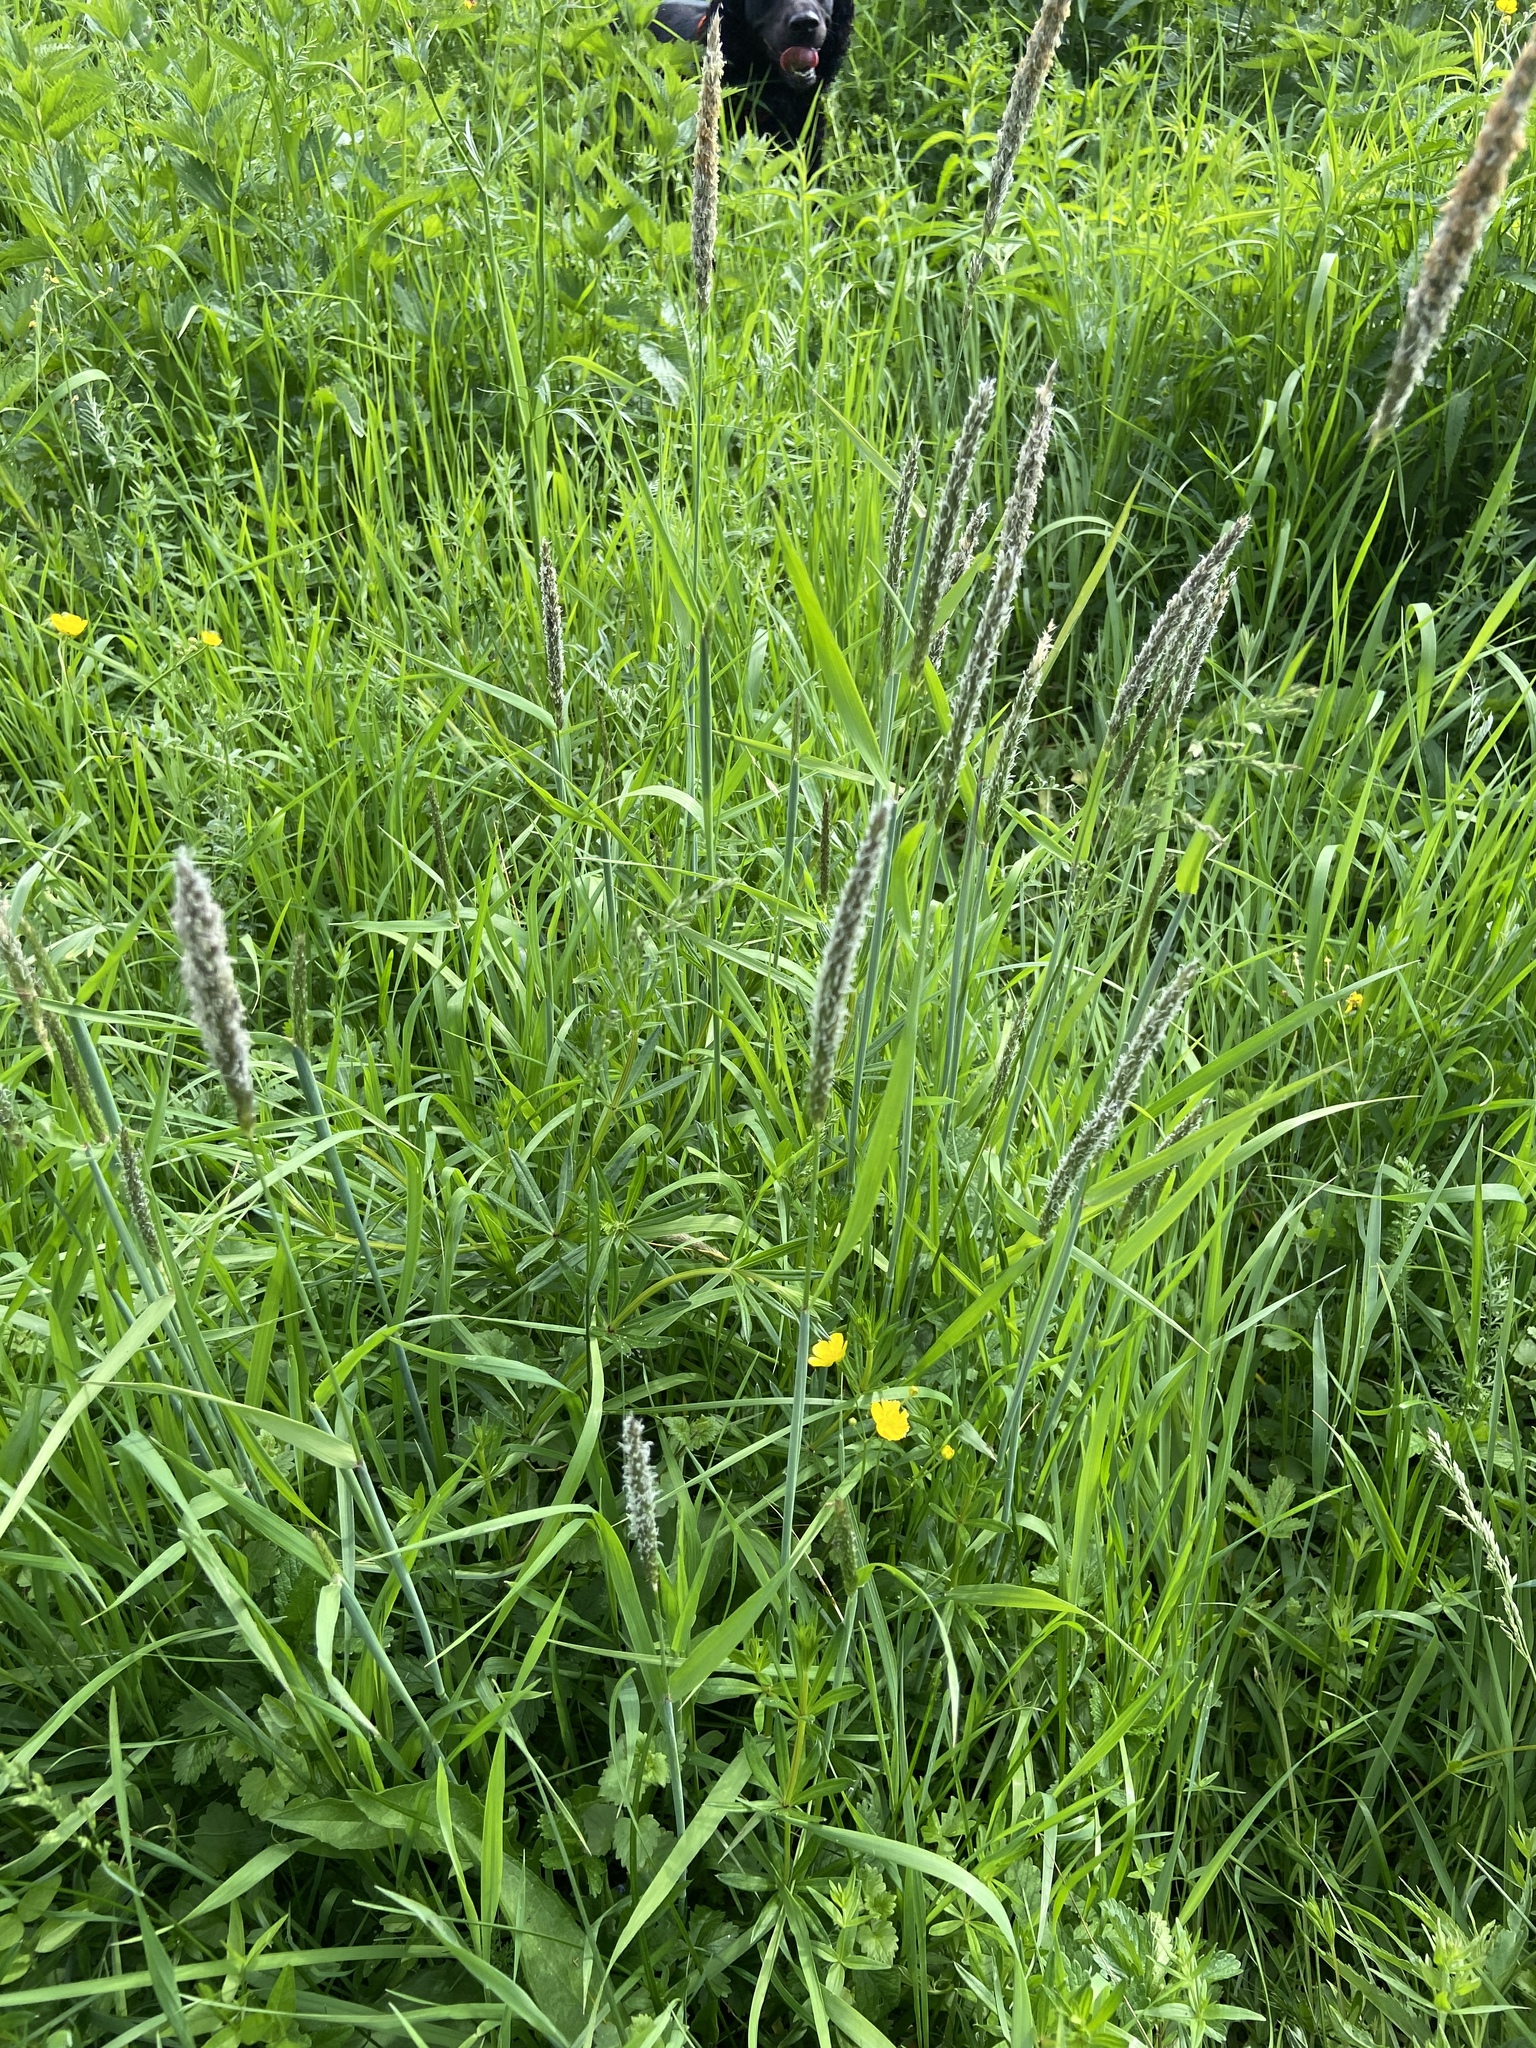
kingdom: Plantae
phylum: Tracheophyta
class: Liliopsida
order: Poales
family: Poaceae
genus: Alopecurus
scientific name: Alopecurus pratensis
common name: Meadow foxtail
